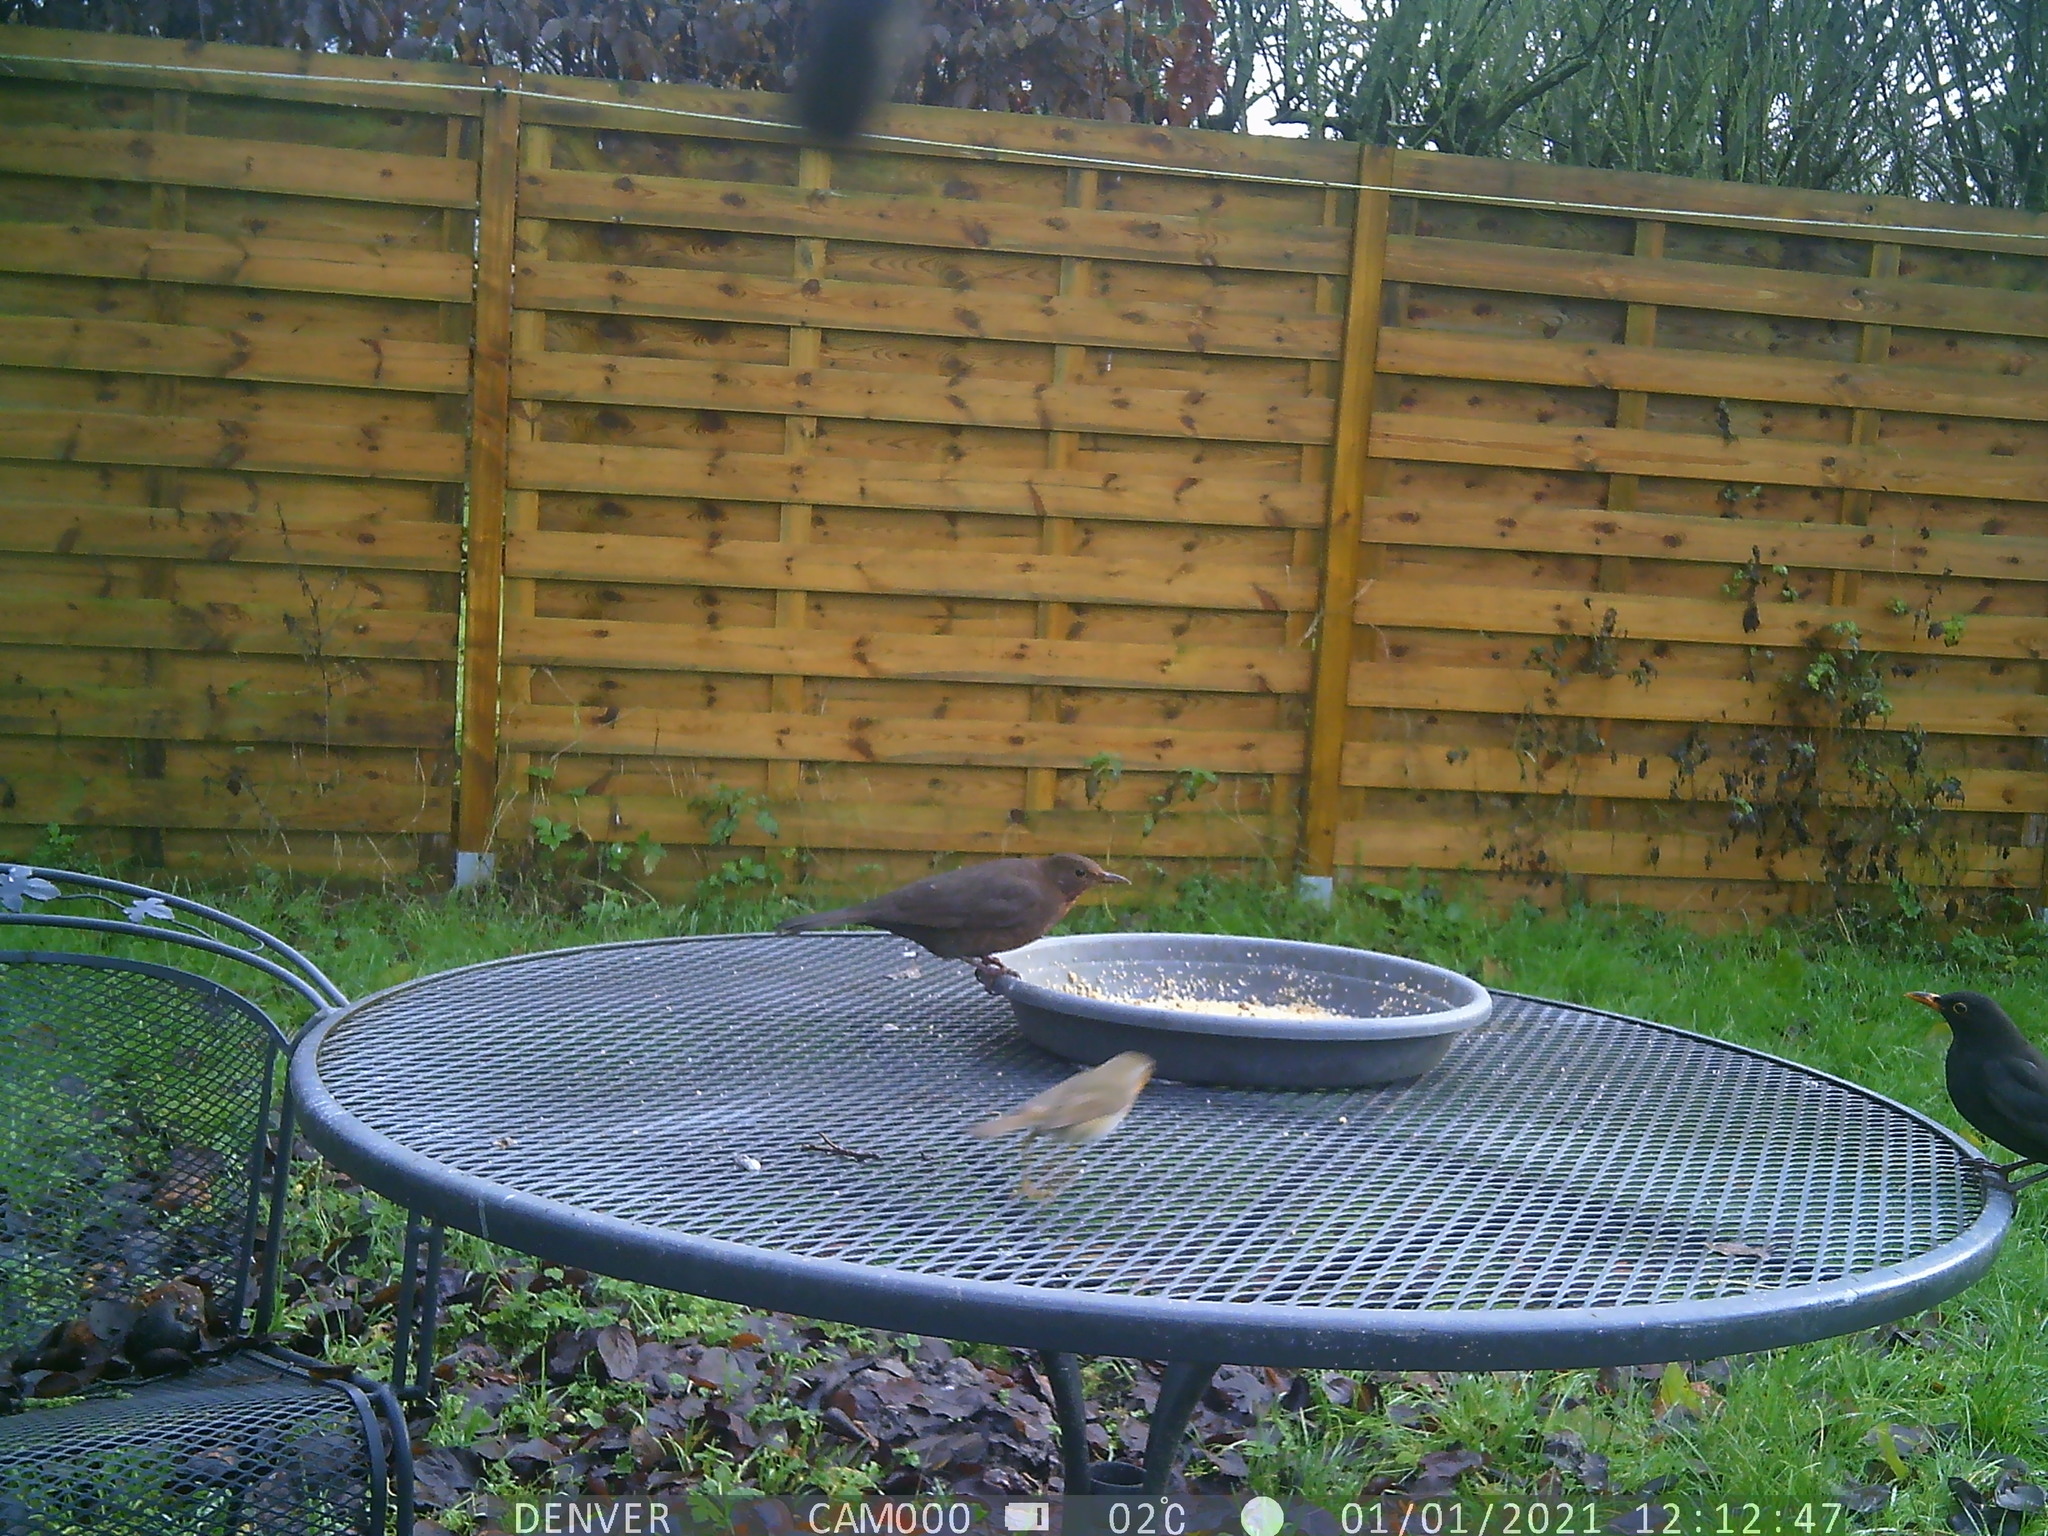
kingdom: Animalia
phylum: Chordata
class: Aves
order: Passeriformes
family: Muscicapidae
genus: Erithacus
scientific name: Erithacus rubecula
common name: European robin
